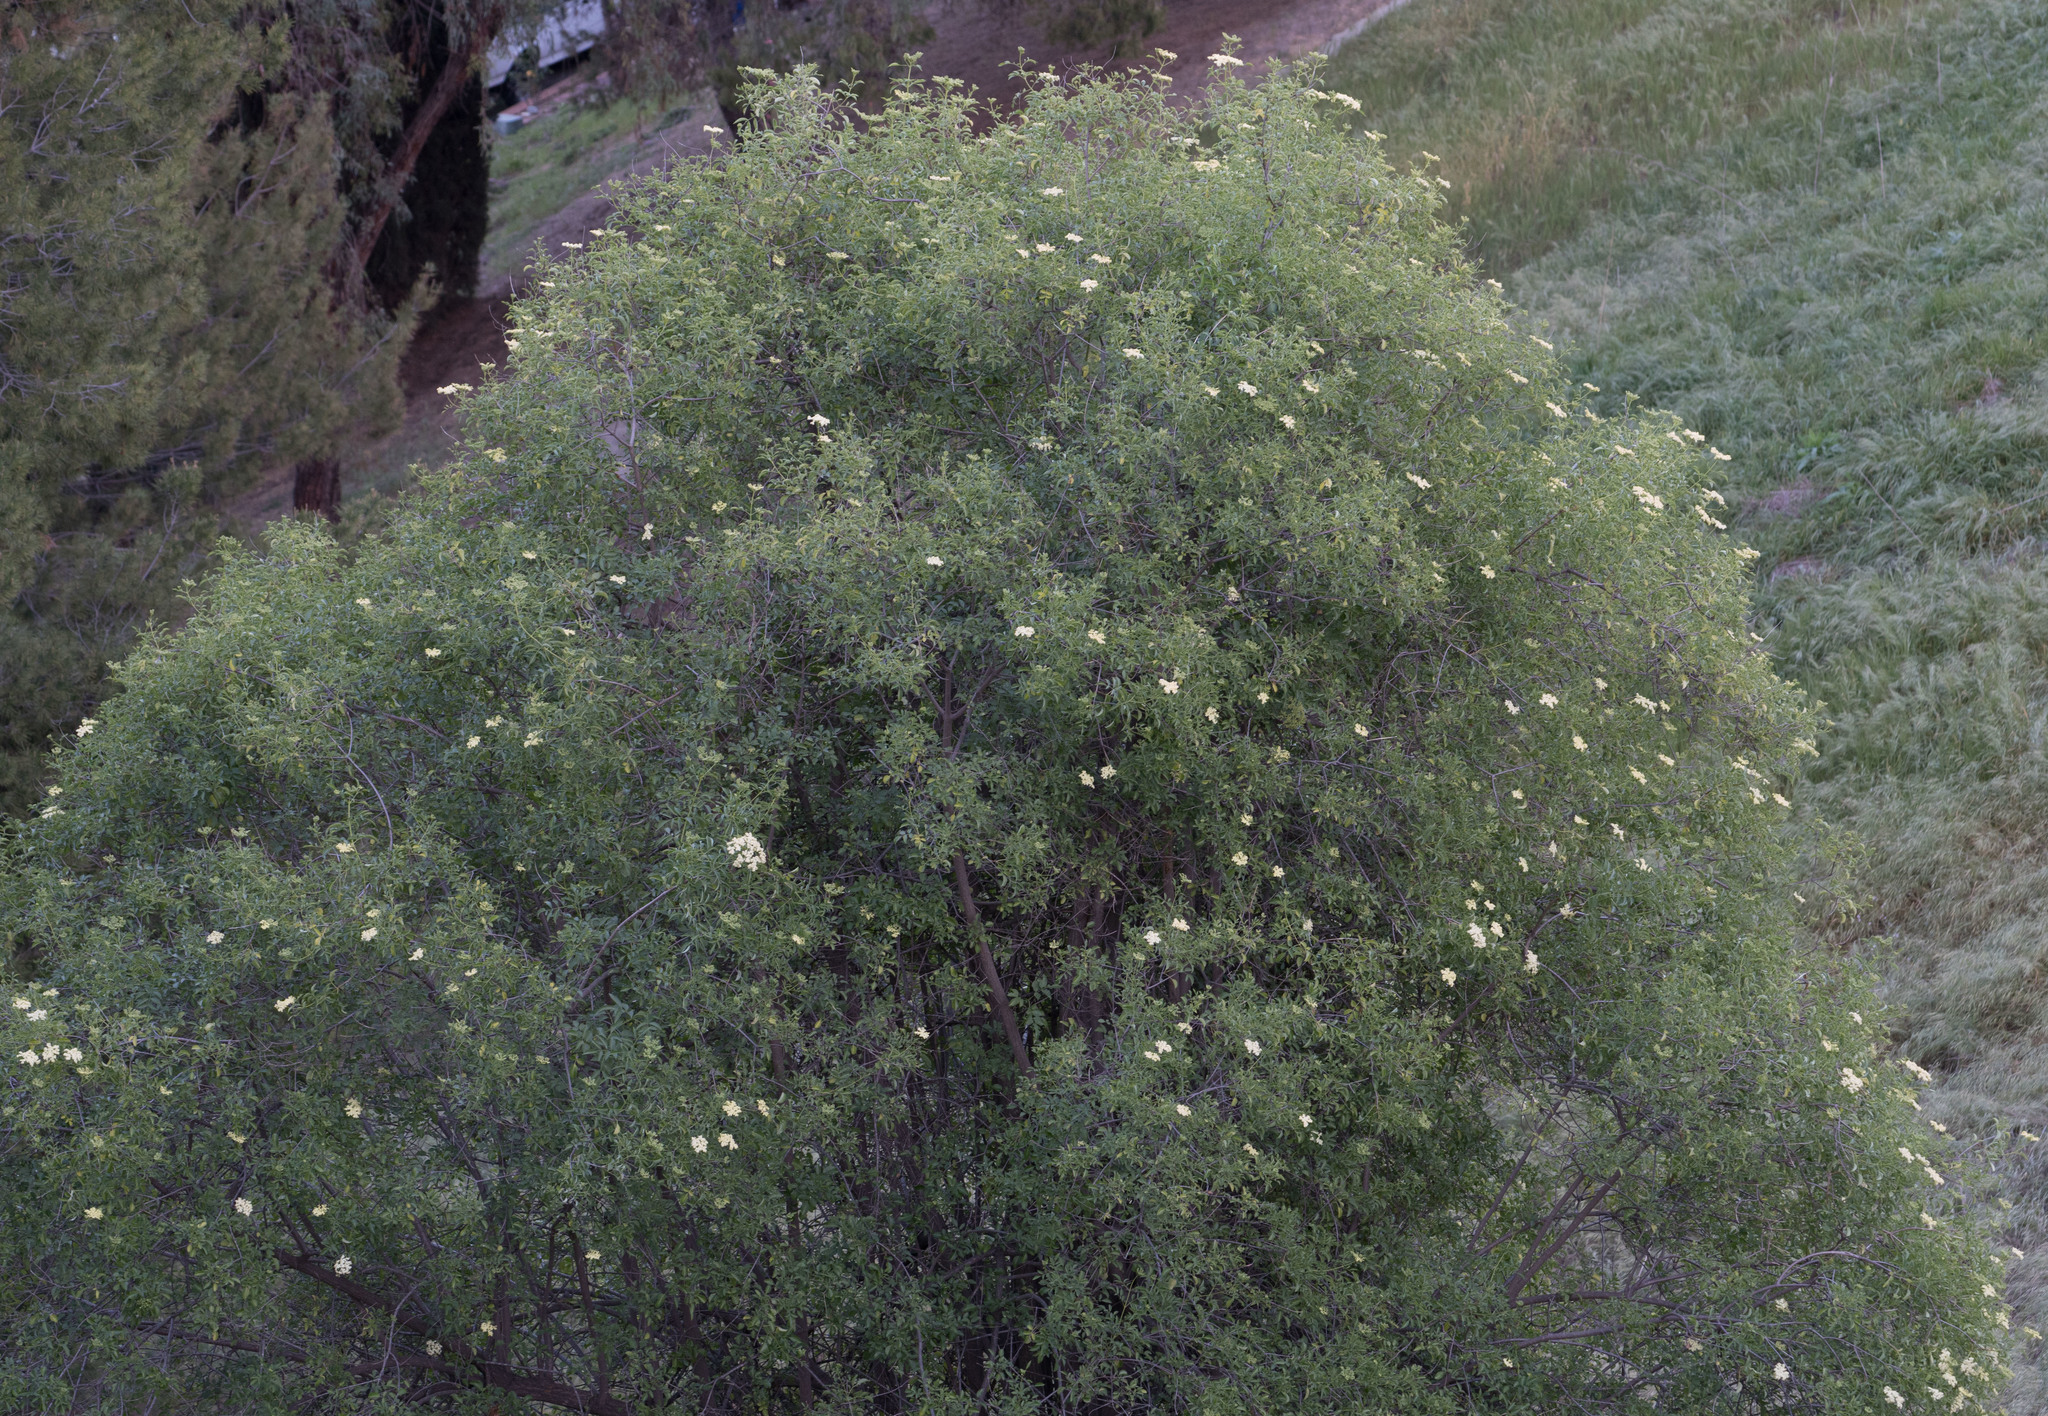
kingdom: Plantae
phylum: Tracheophyta
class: Magnoliopsida
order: Dipsacales
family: Viburnaceae
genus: Sambucus
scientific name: Sambucus cerulea
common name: Blue elder
